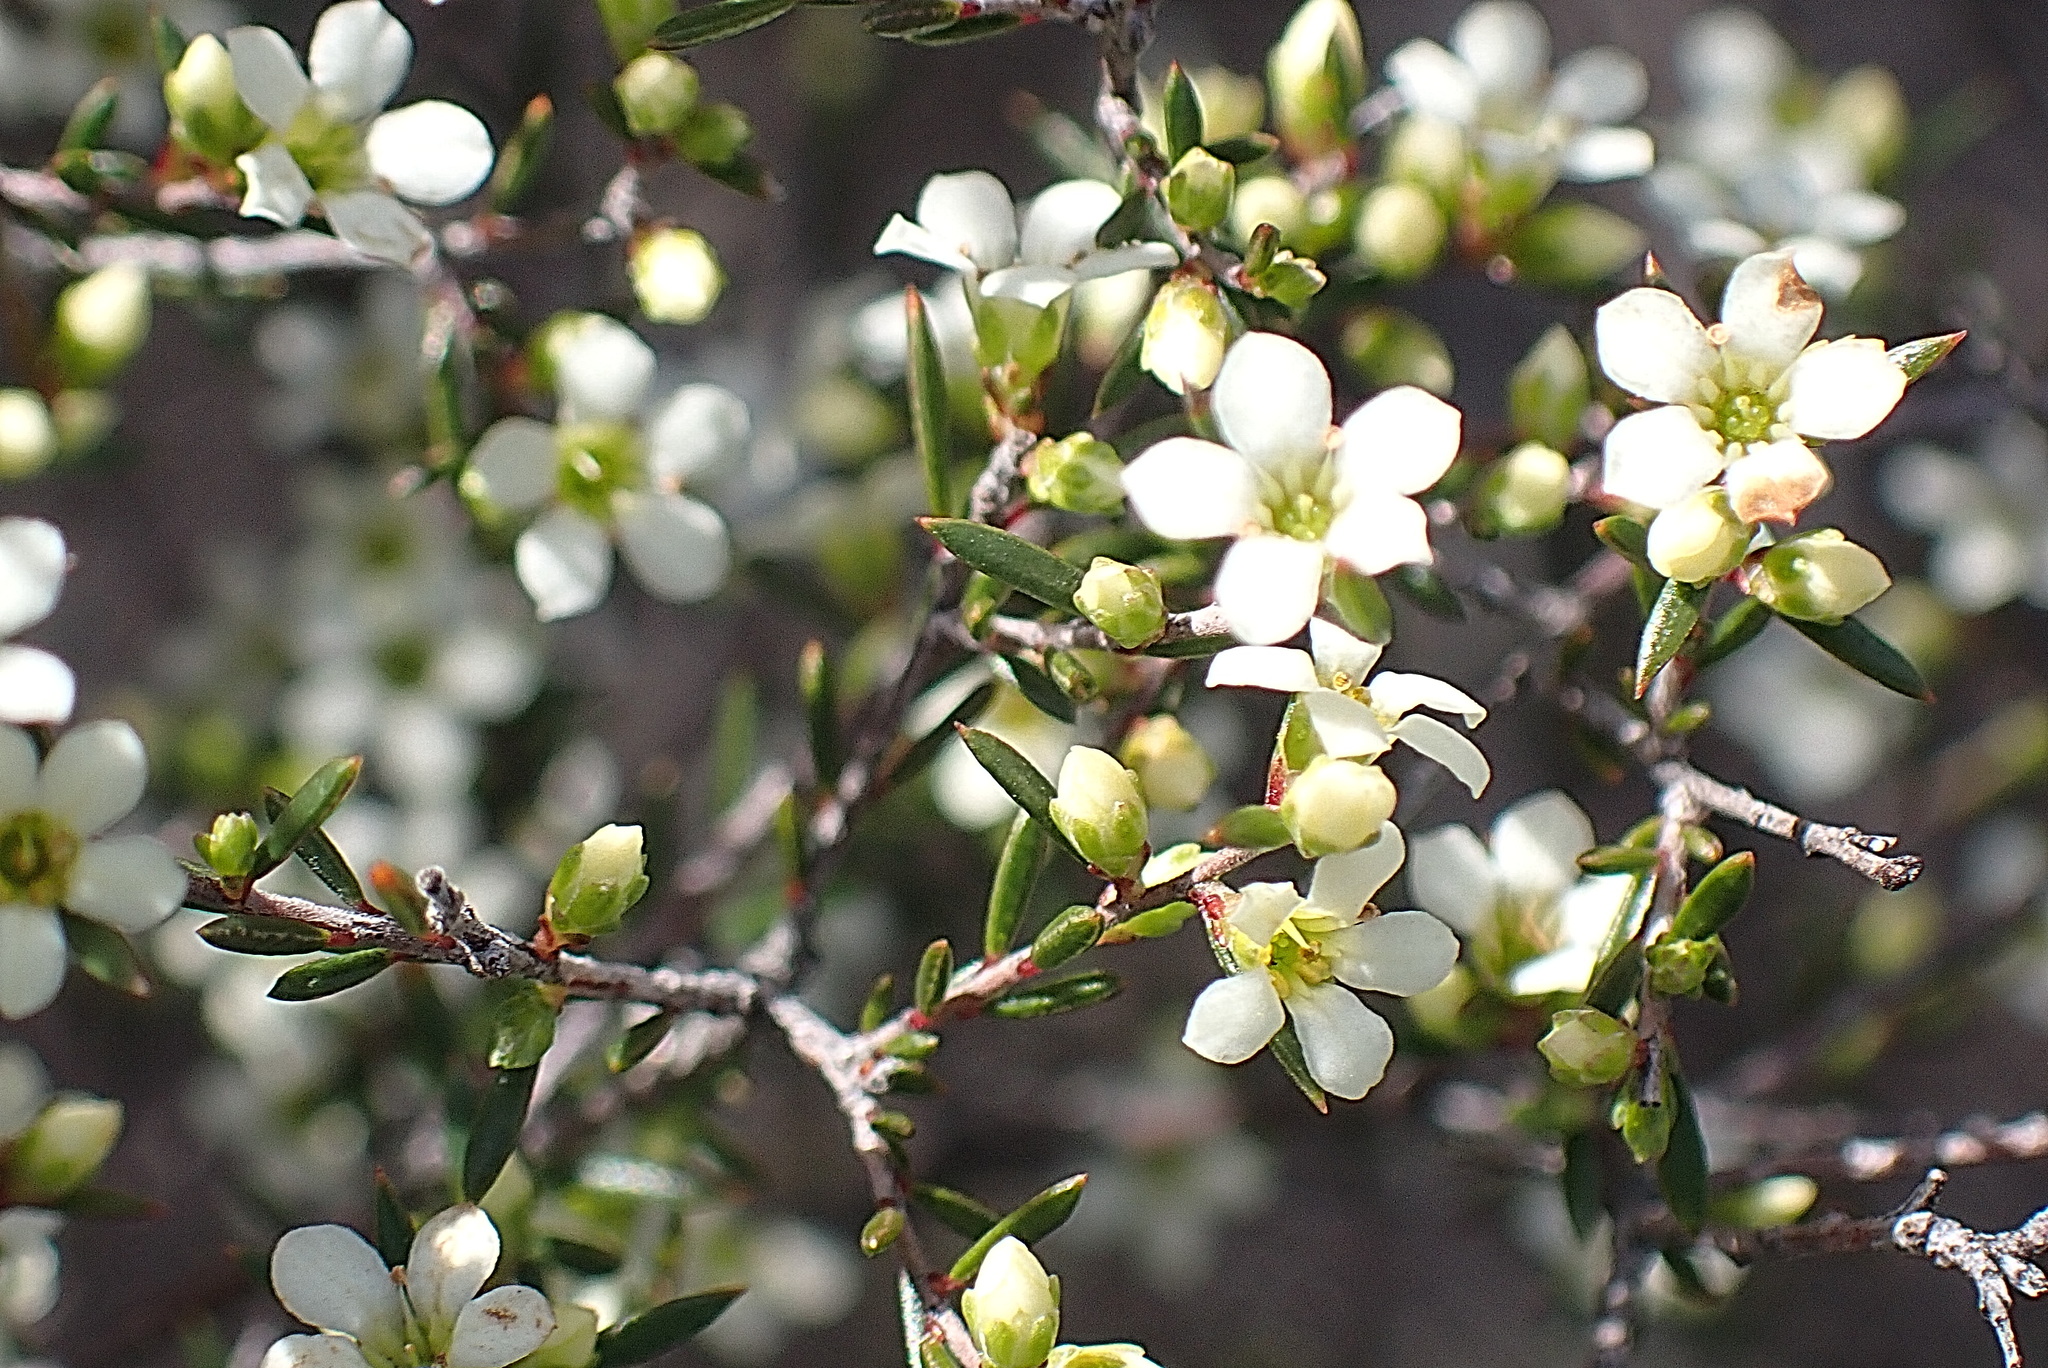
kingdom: Plantae
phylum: Tracheophyta
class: Magnoliopsida
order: Sapindales
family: Rutaceae
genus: Coleonema
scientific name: Coleonema juniperinum
